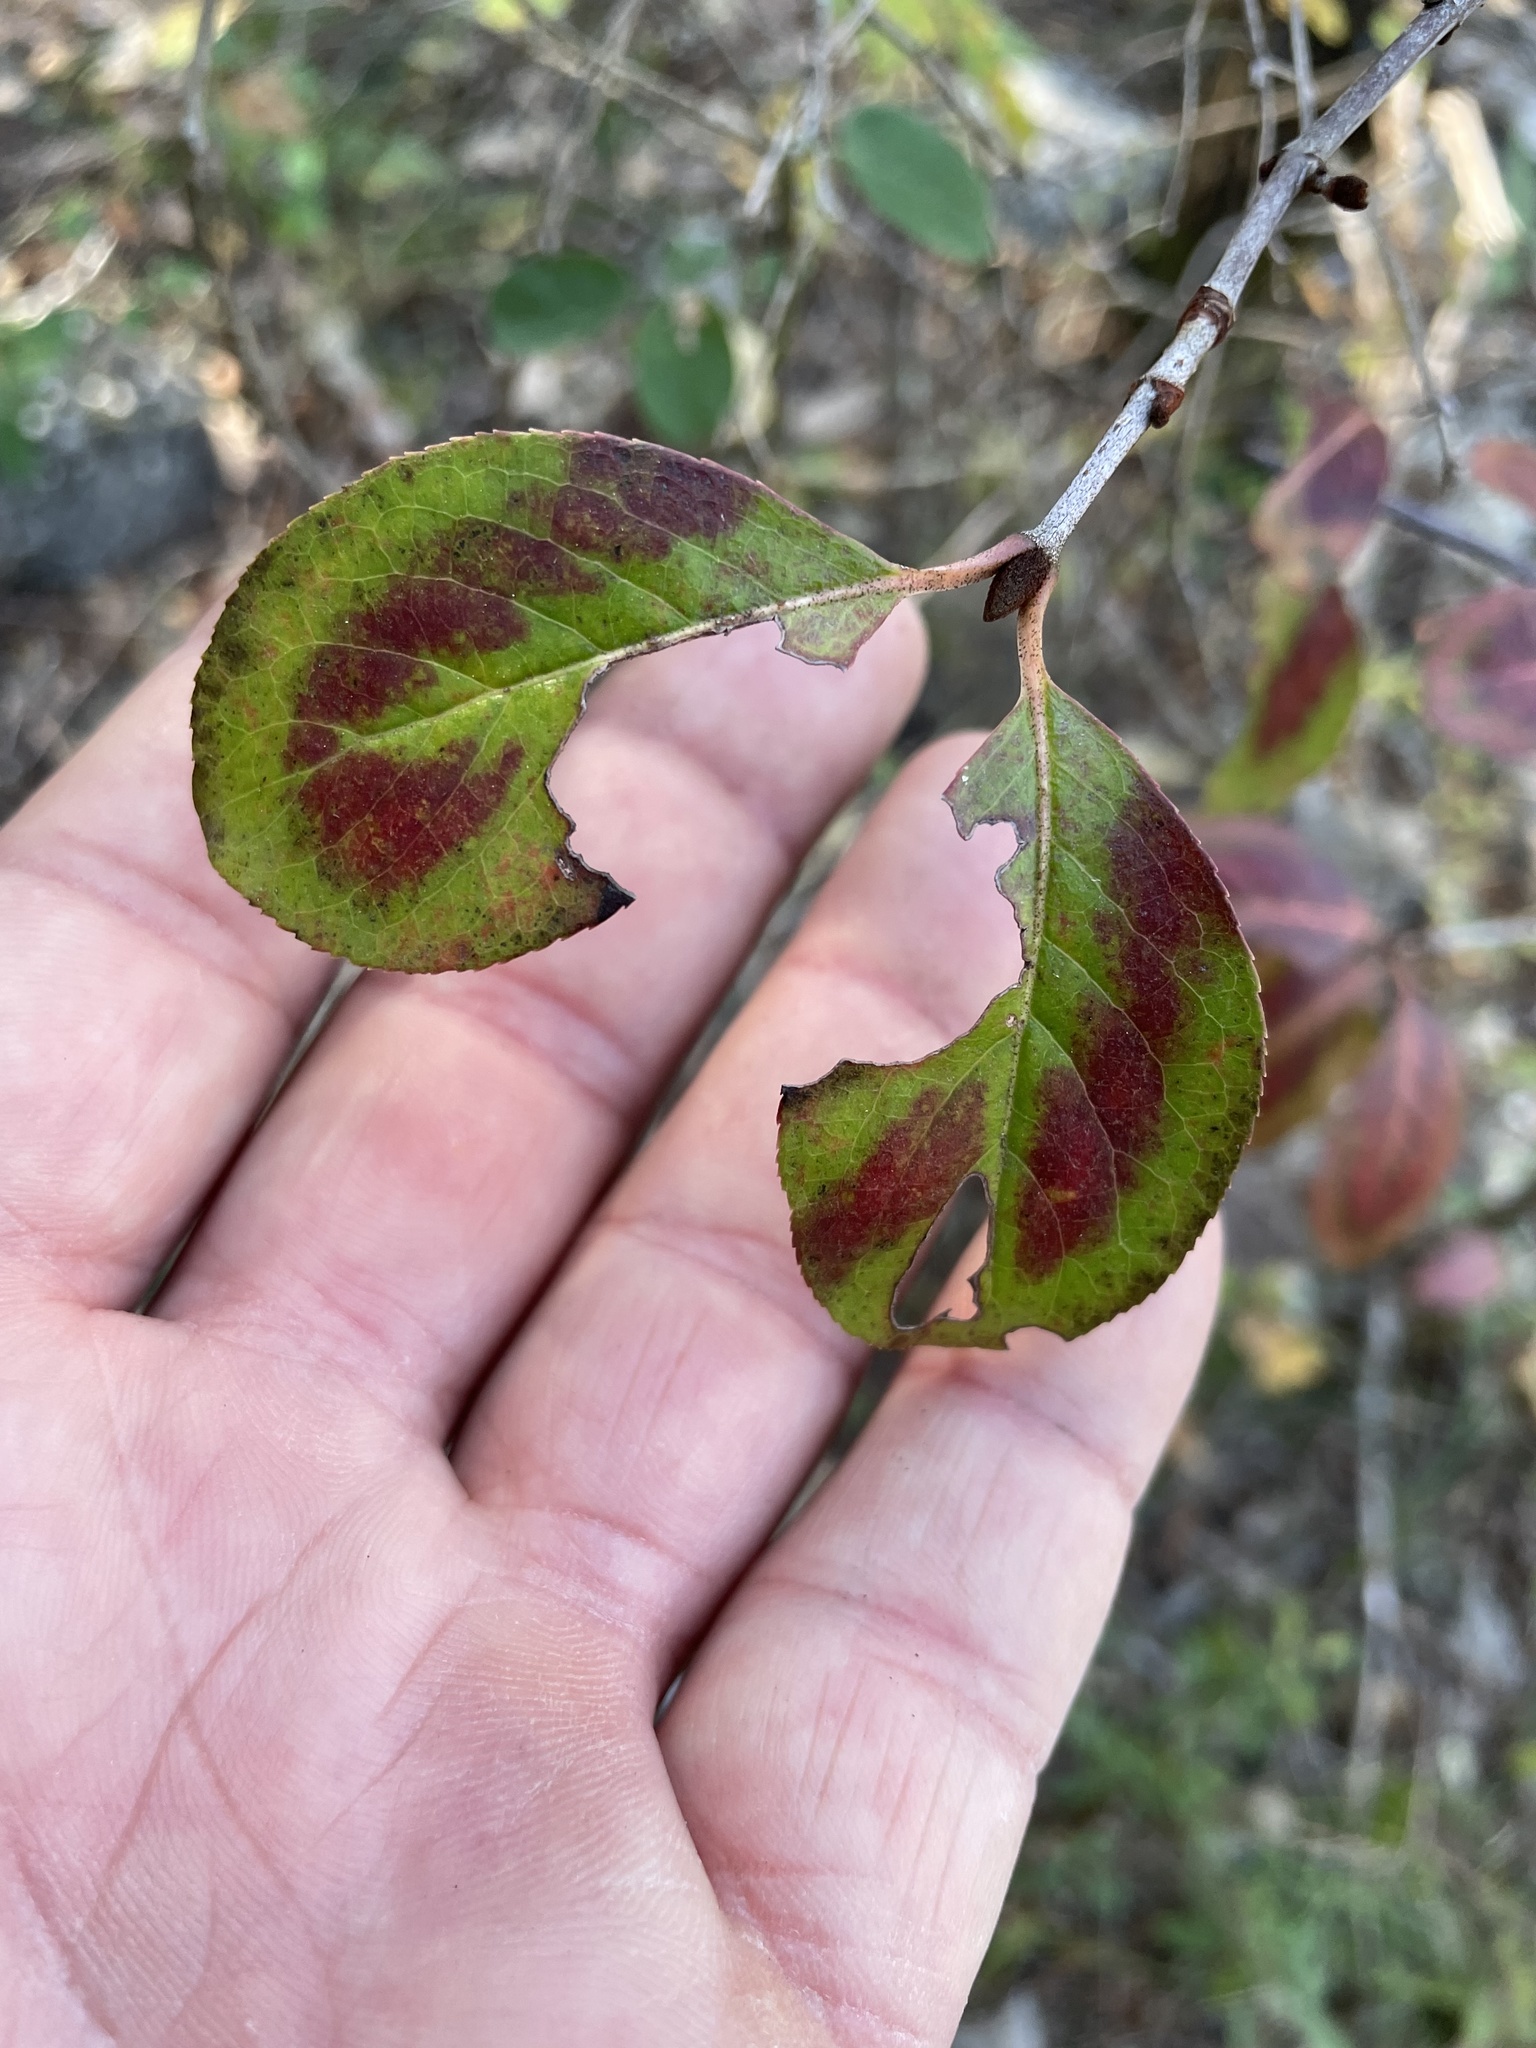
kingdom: Plantae
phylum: Tracheophyta
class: Magnoliopsida
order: Dipsacales
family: Viburnaceae
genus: Viburnum
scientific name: Viburnum rufidulum
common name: Blue haw
